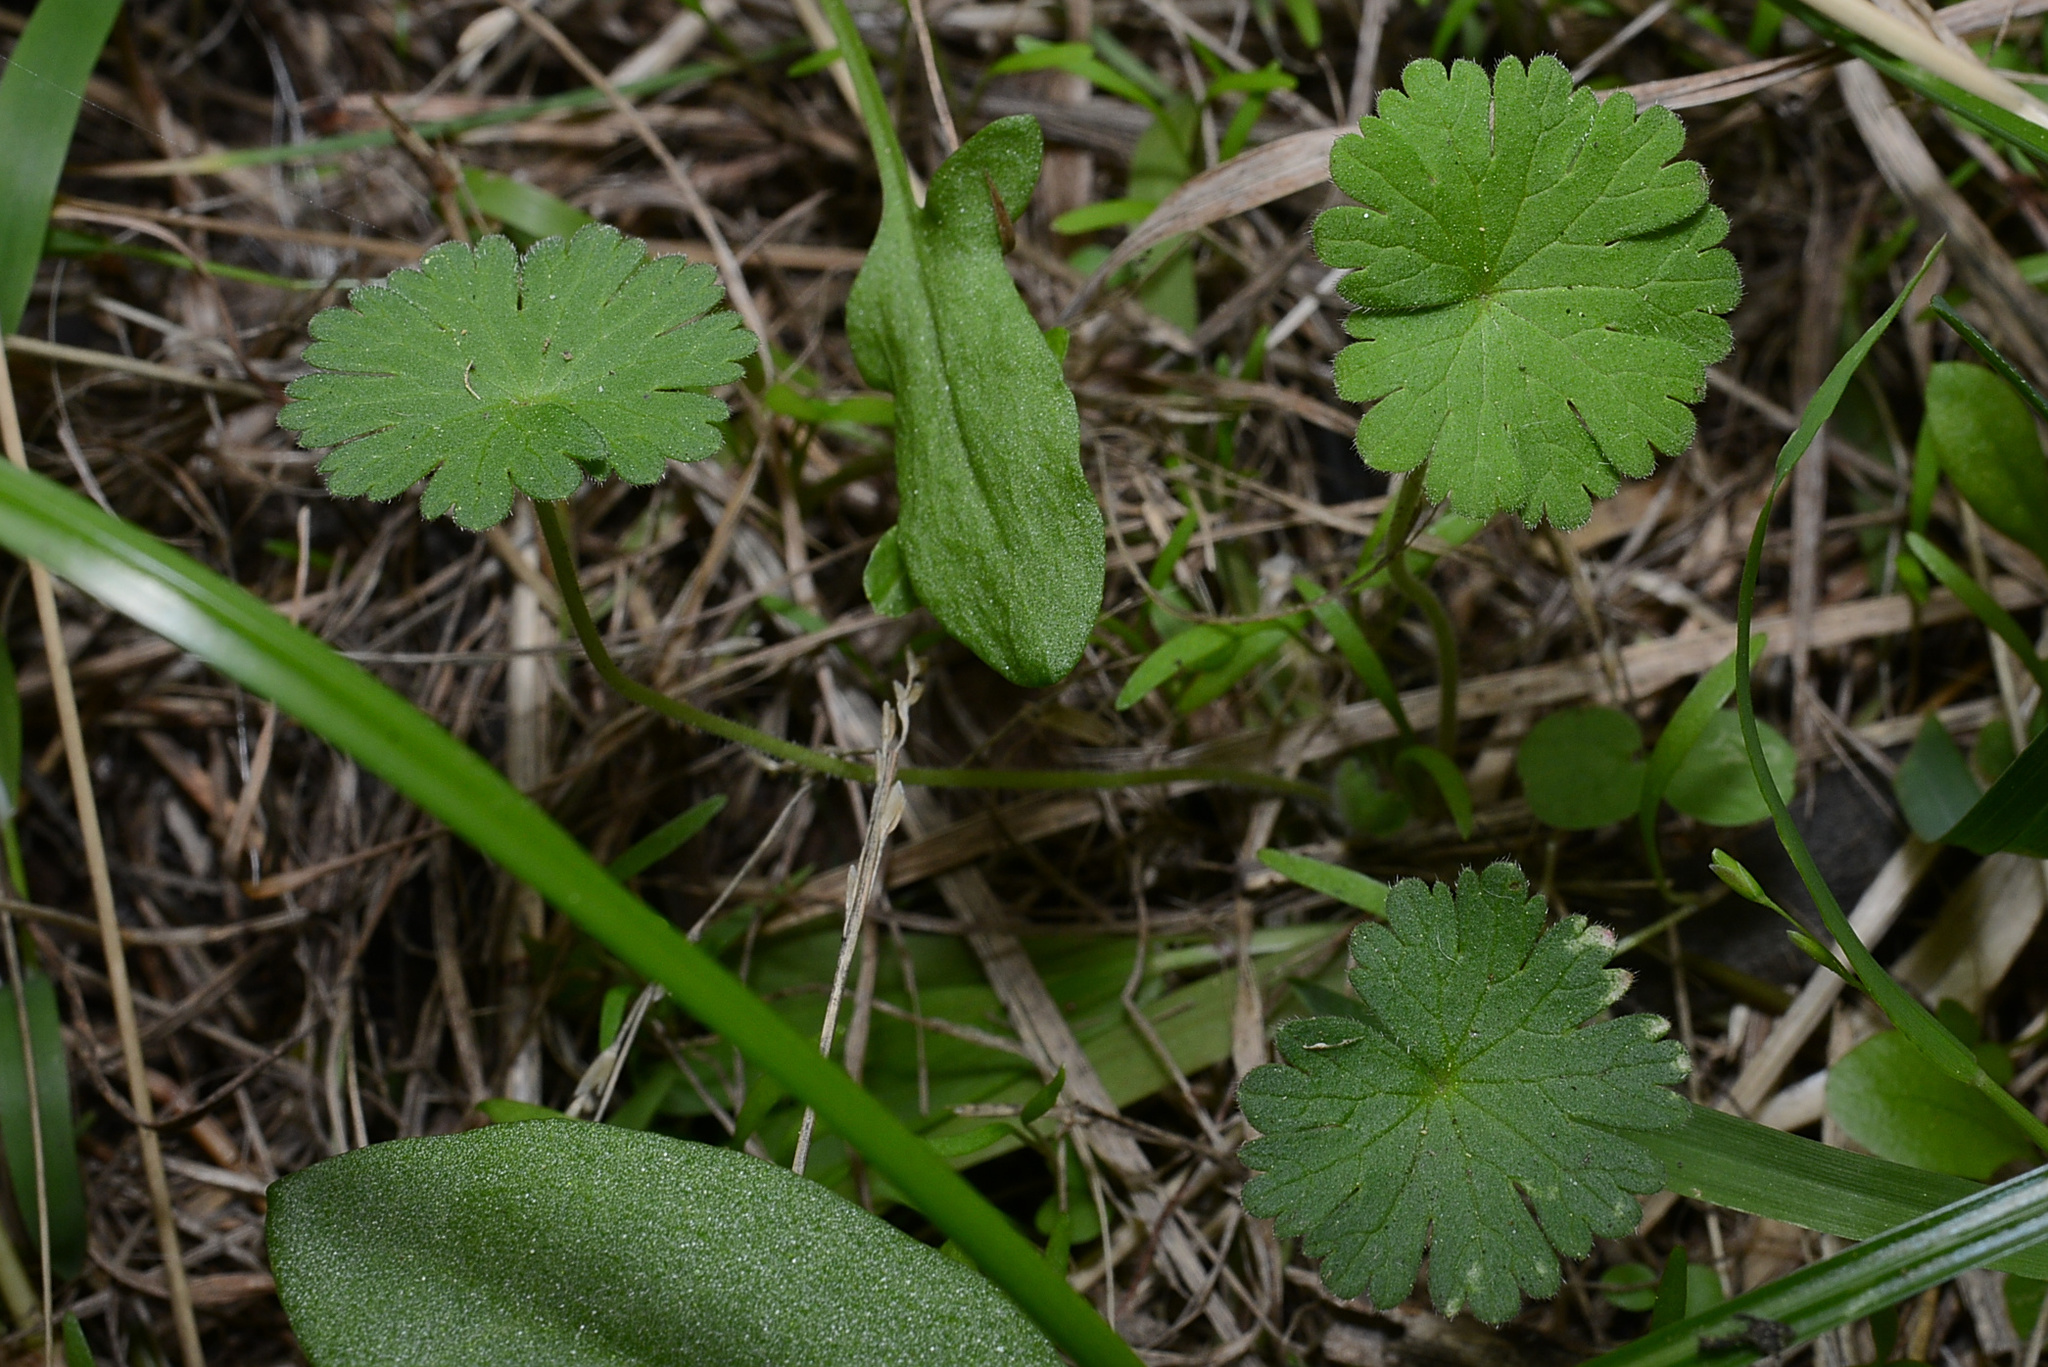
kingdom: Plantae
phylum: Tracheophyta
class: Magnoliopsida
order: Geraniales
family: Geraniaceae
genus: Geranium
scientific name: Geranium molle
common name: Dove's-foot crane's-bill
